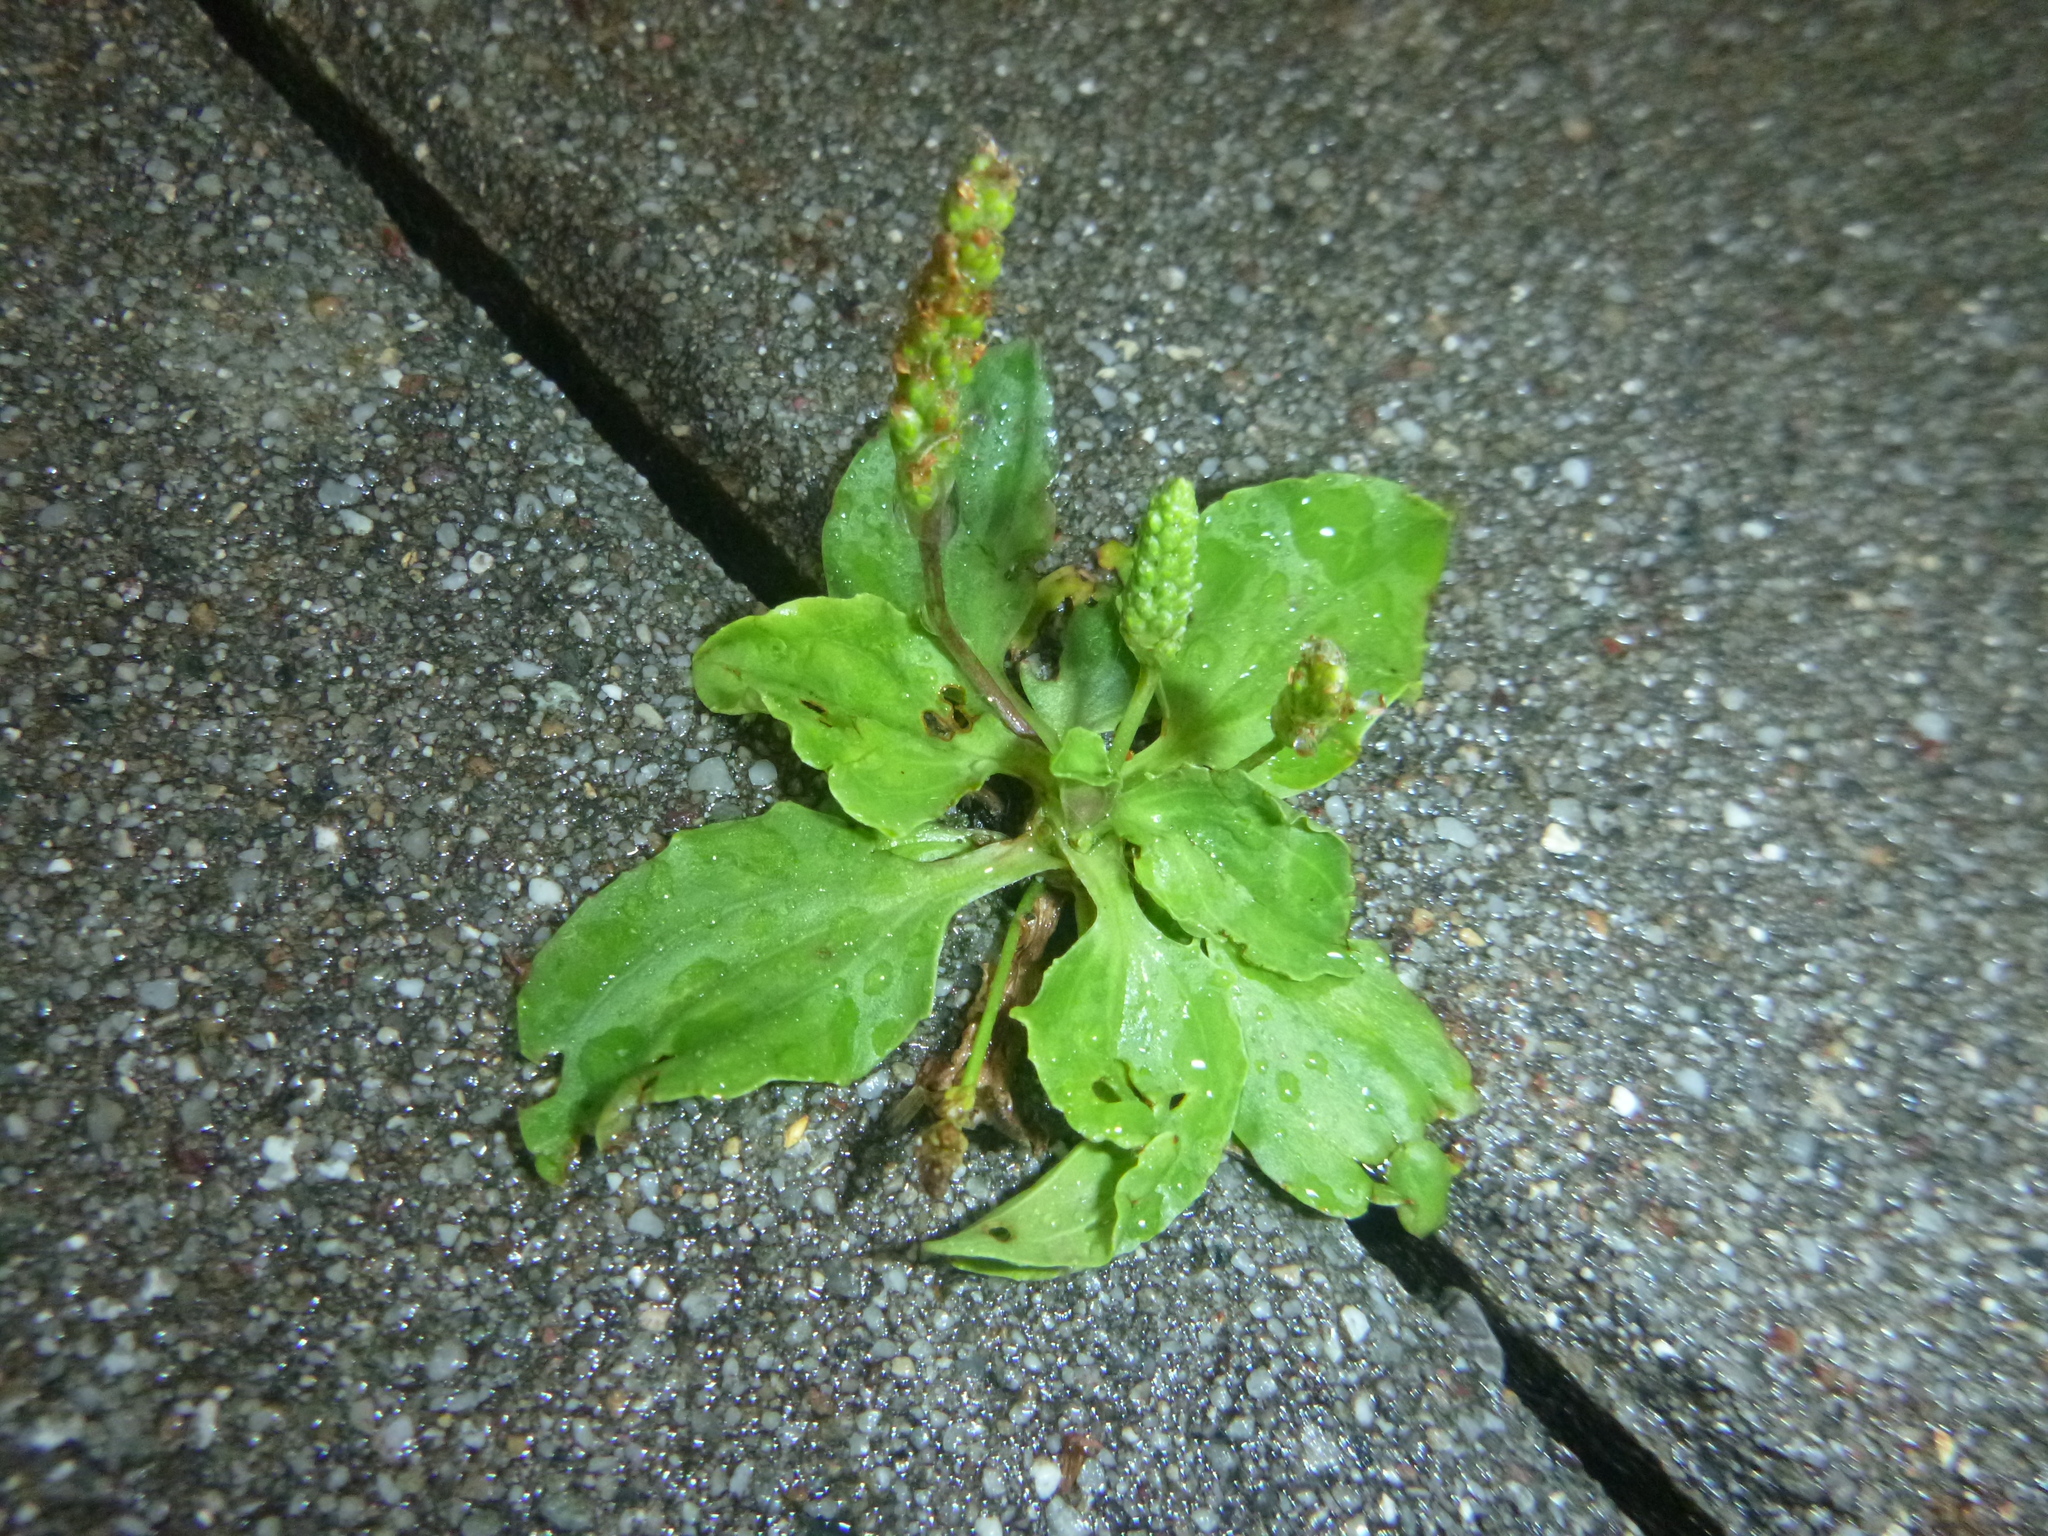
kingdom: Plantae
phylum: Tracheophyta
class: Magnoliopsida
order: Lamiales
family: Plantaginaceae
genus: Plantago
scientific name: Plantago major
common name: Common plantain
